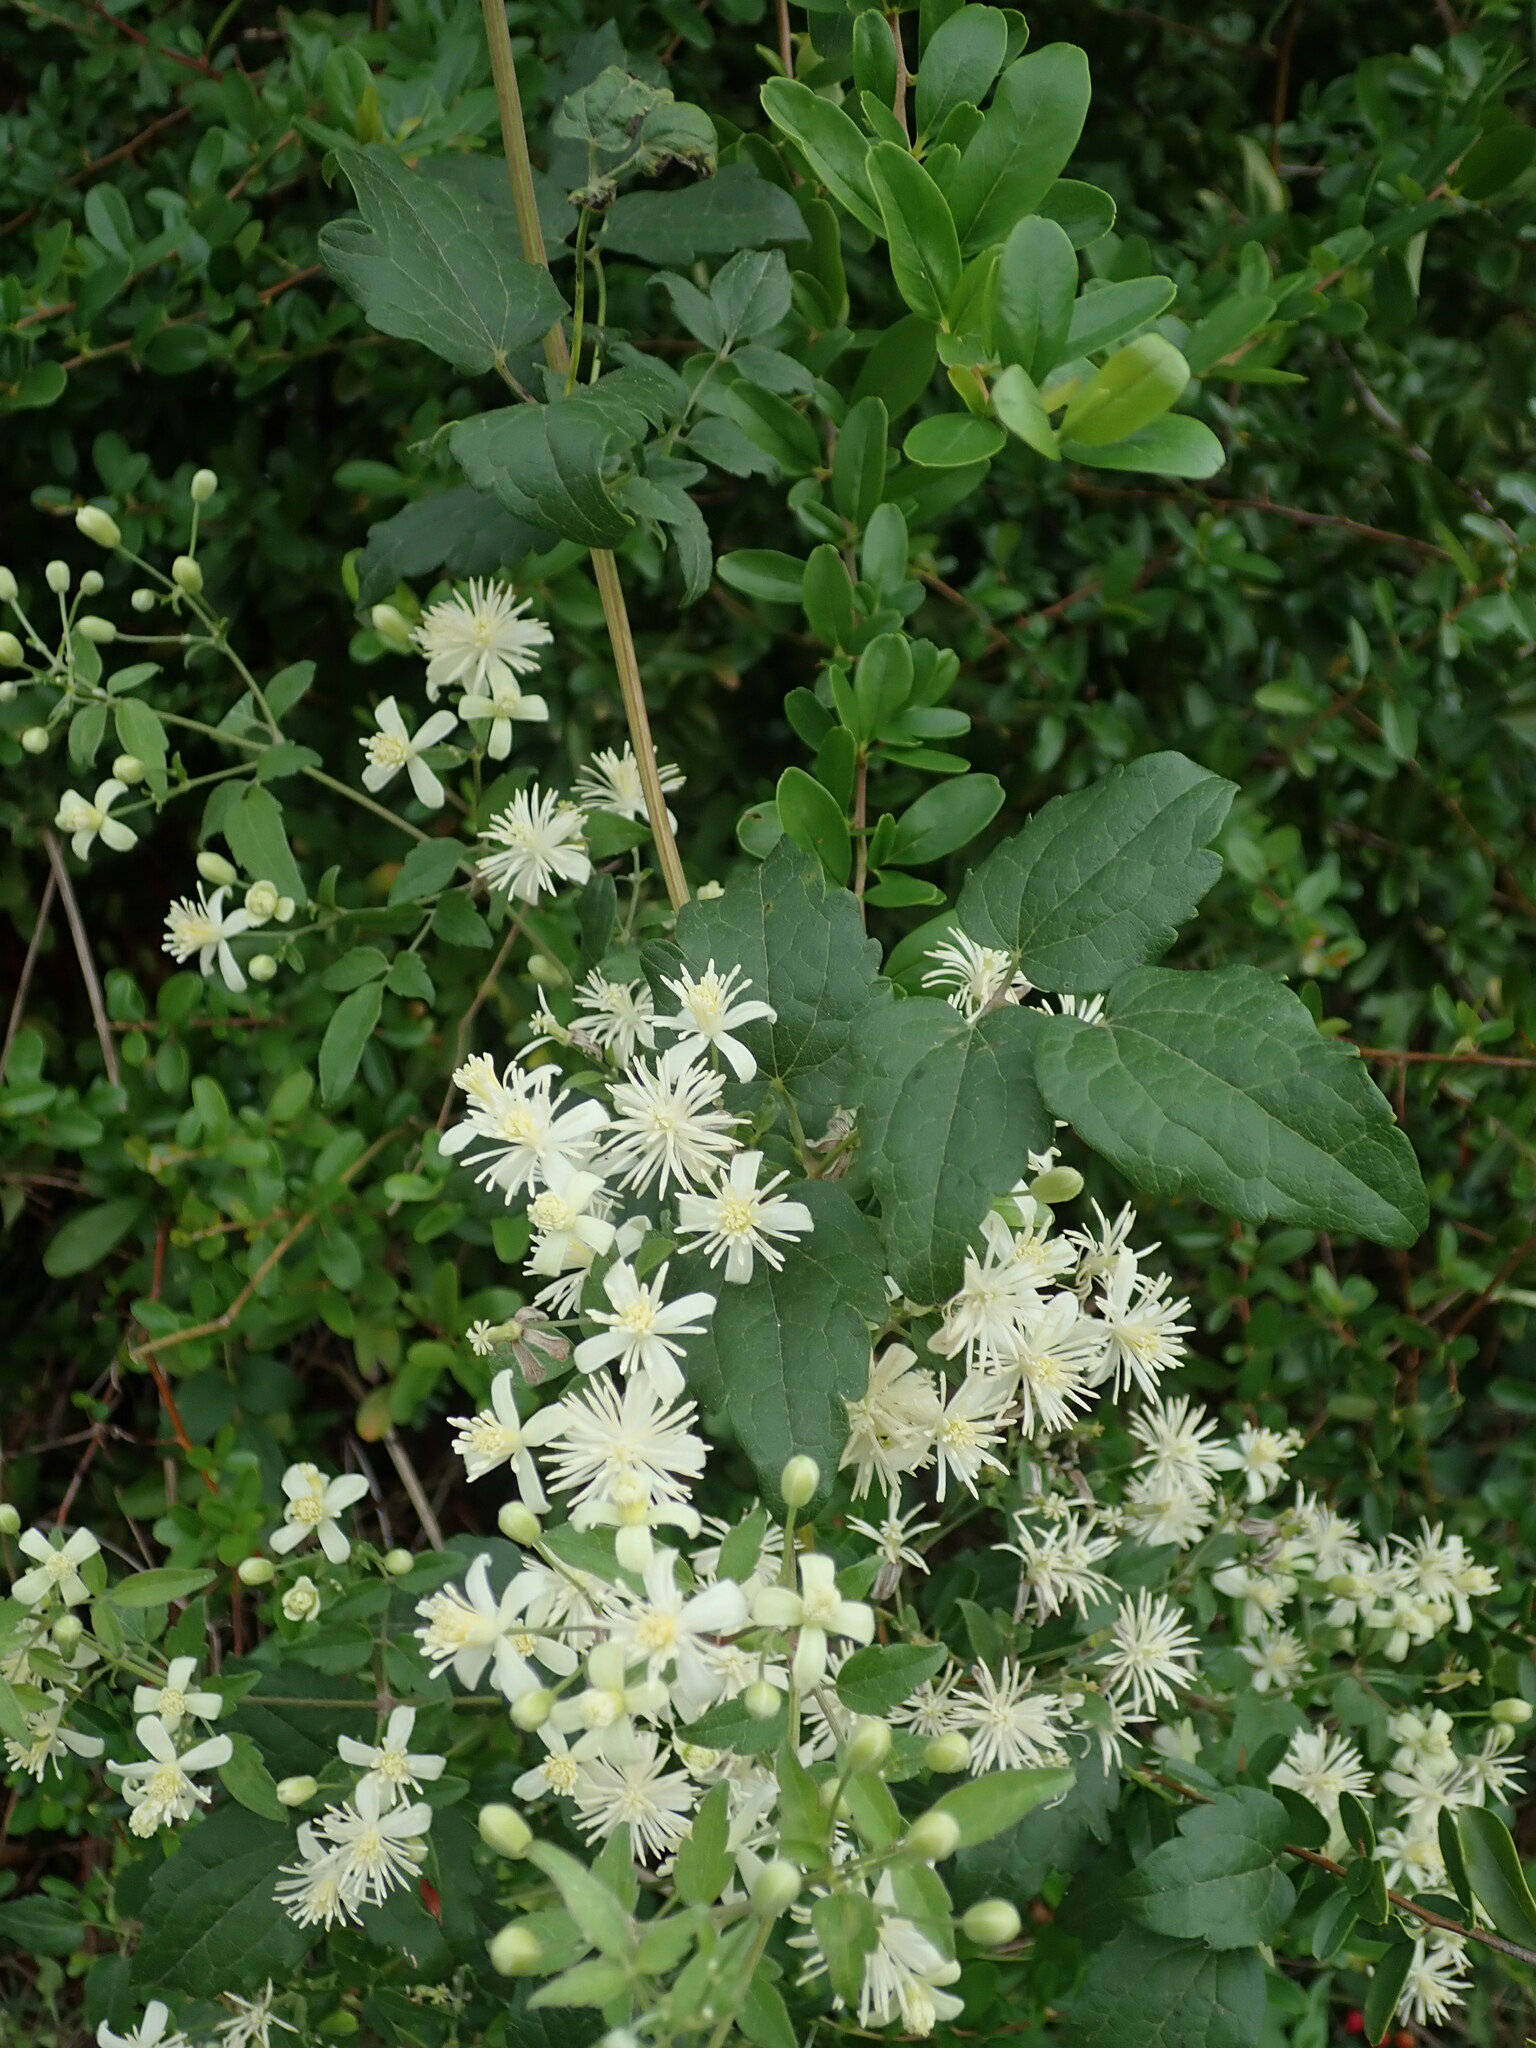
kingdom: Plantae
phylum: Tracheophyta
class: Magnoliopsida
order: Ranunculales
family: Ranunculaceae
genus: Clematis
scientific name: Clematis vitalba
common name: Evergreen clematis
